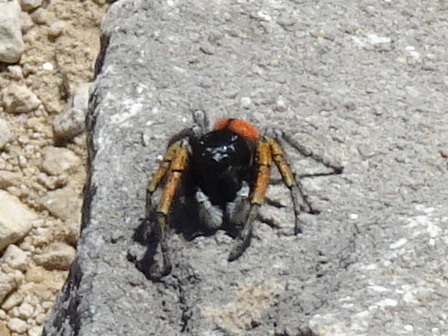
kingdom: Animalia
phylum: Arthropoda
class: Arachnida
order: Araneae
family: Salticidae
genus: Philaeus
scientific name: Philaeus chrysops
